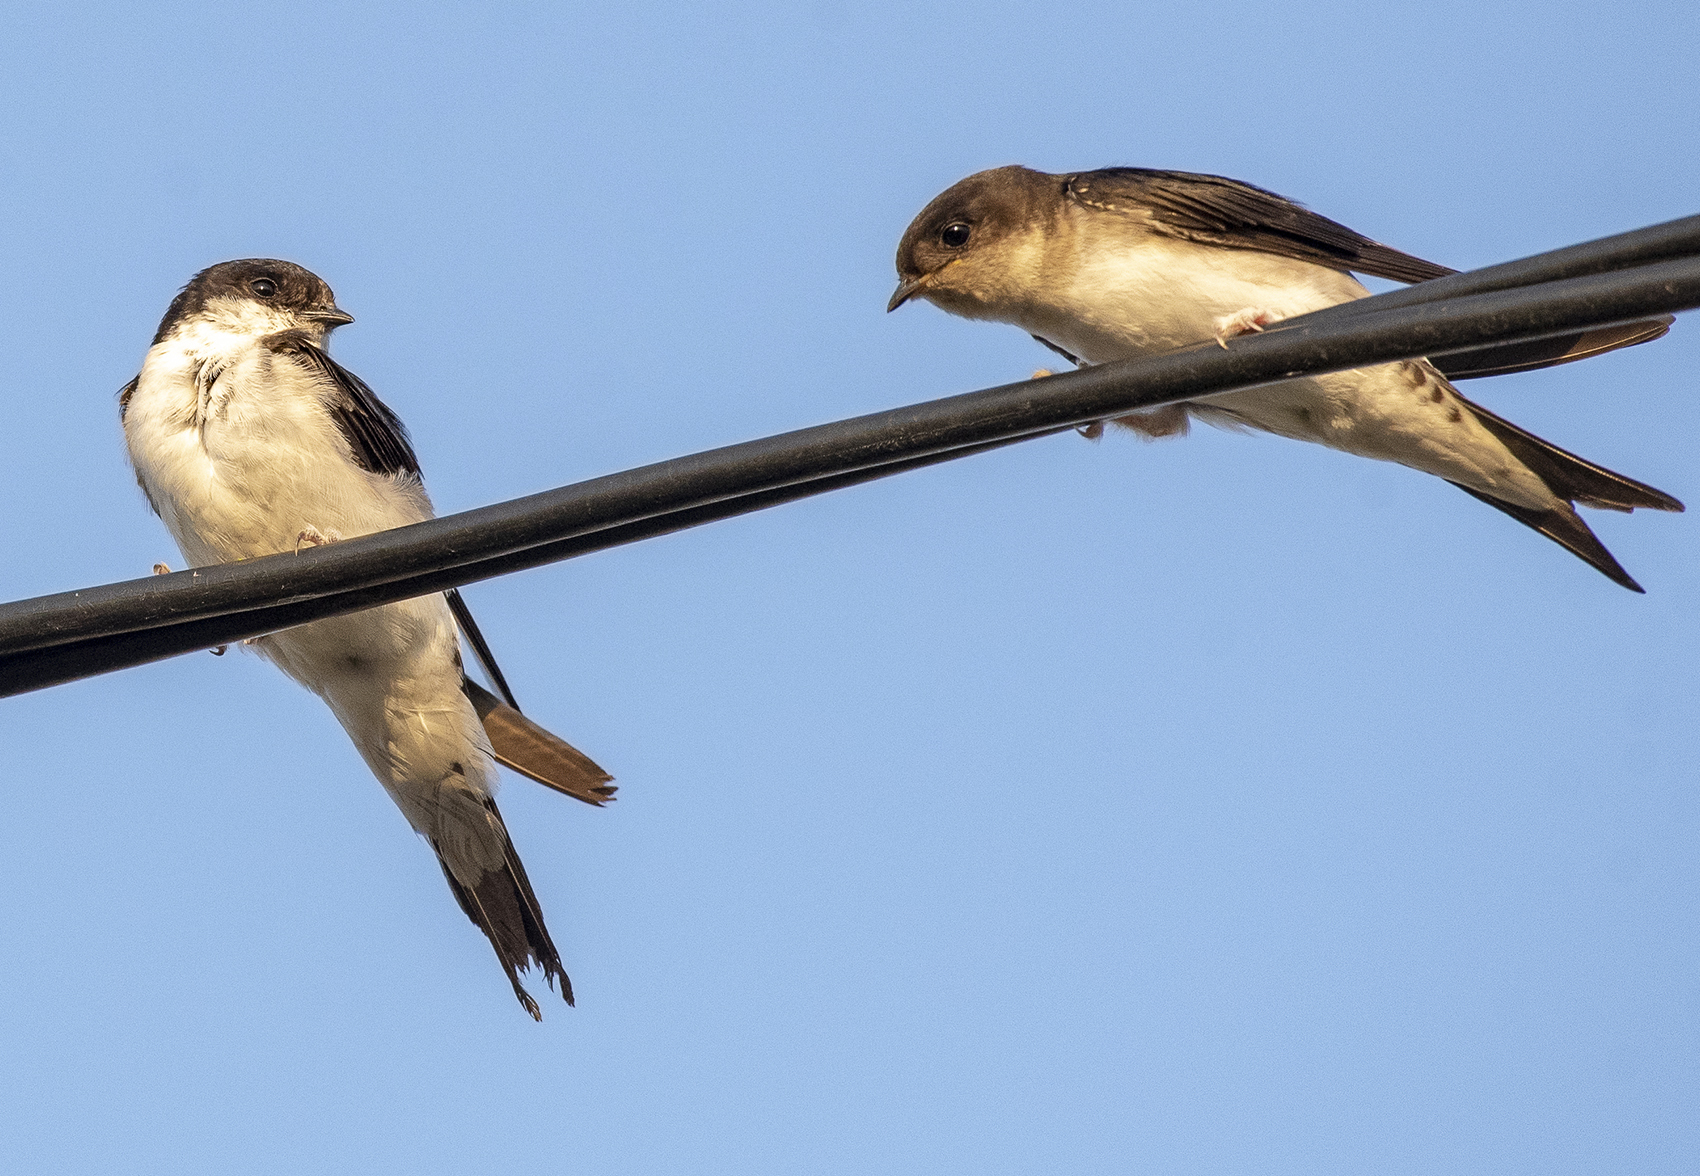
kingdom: Animalia
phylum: Chordata
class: Aves
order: Passeriformes
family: Hirundinidae
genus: Delichon
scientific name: Delichon urbicum
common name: Common house martin
